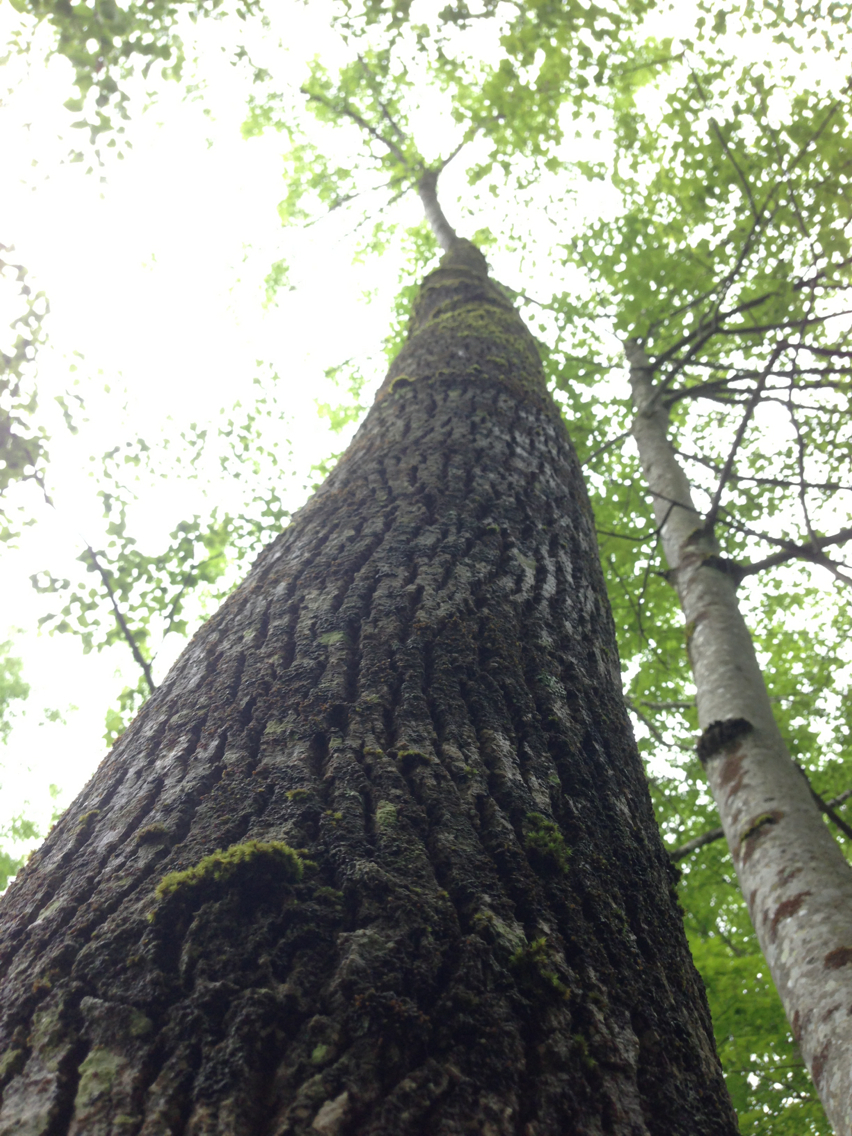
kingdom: Plantae
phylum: Tracheophyta
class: Magnoliopsida
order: Lamiales
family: Oleaceae
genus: Fraxinus
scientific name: Fraxinus americana
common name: White ash
